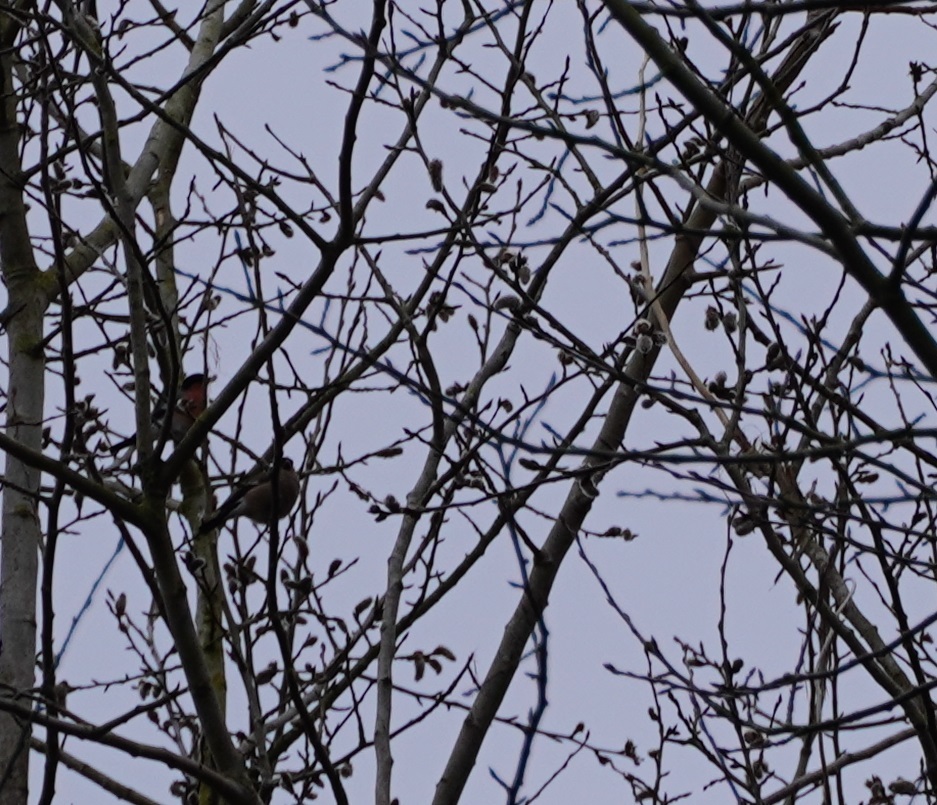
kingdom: Animalia
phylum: Chordata
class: Aves
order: Passeriformes
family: Fringillidae
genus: Pyrrhula
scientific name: Pyrrhula pyrrhula
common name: Eurasian bullfinch
